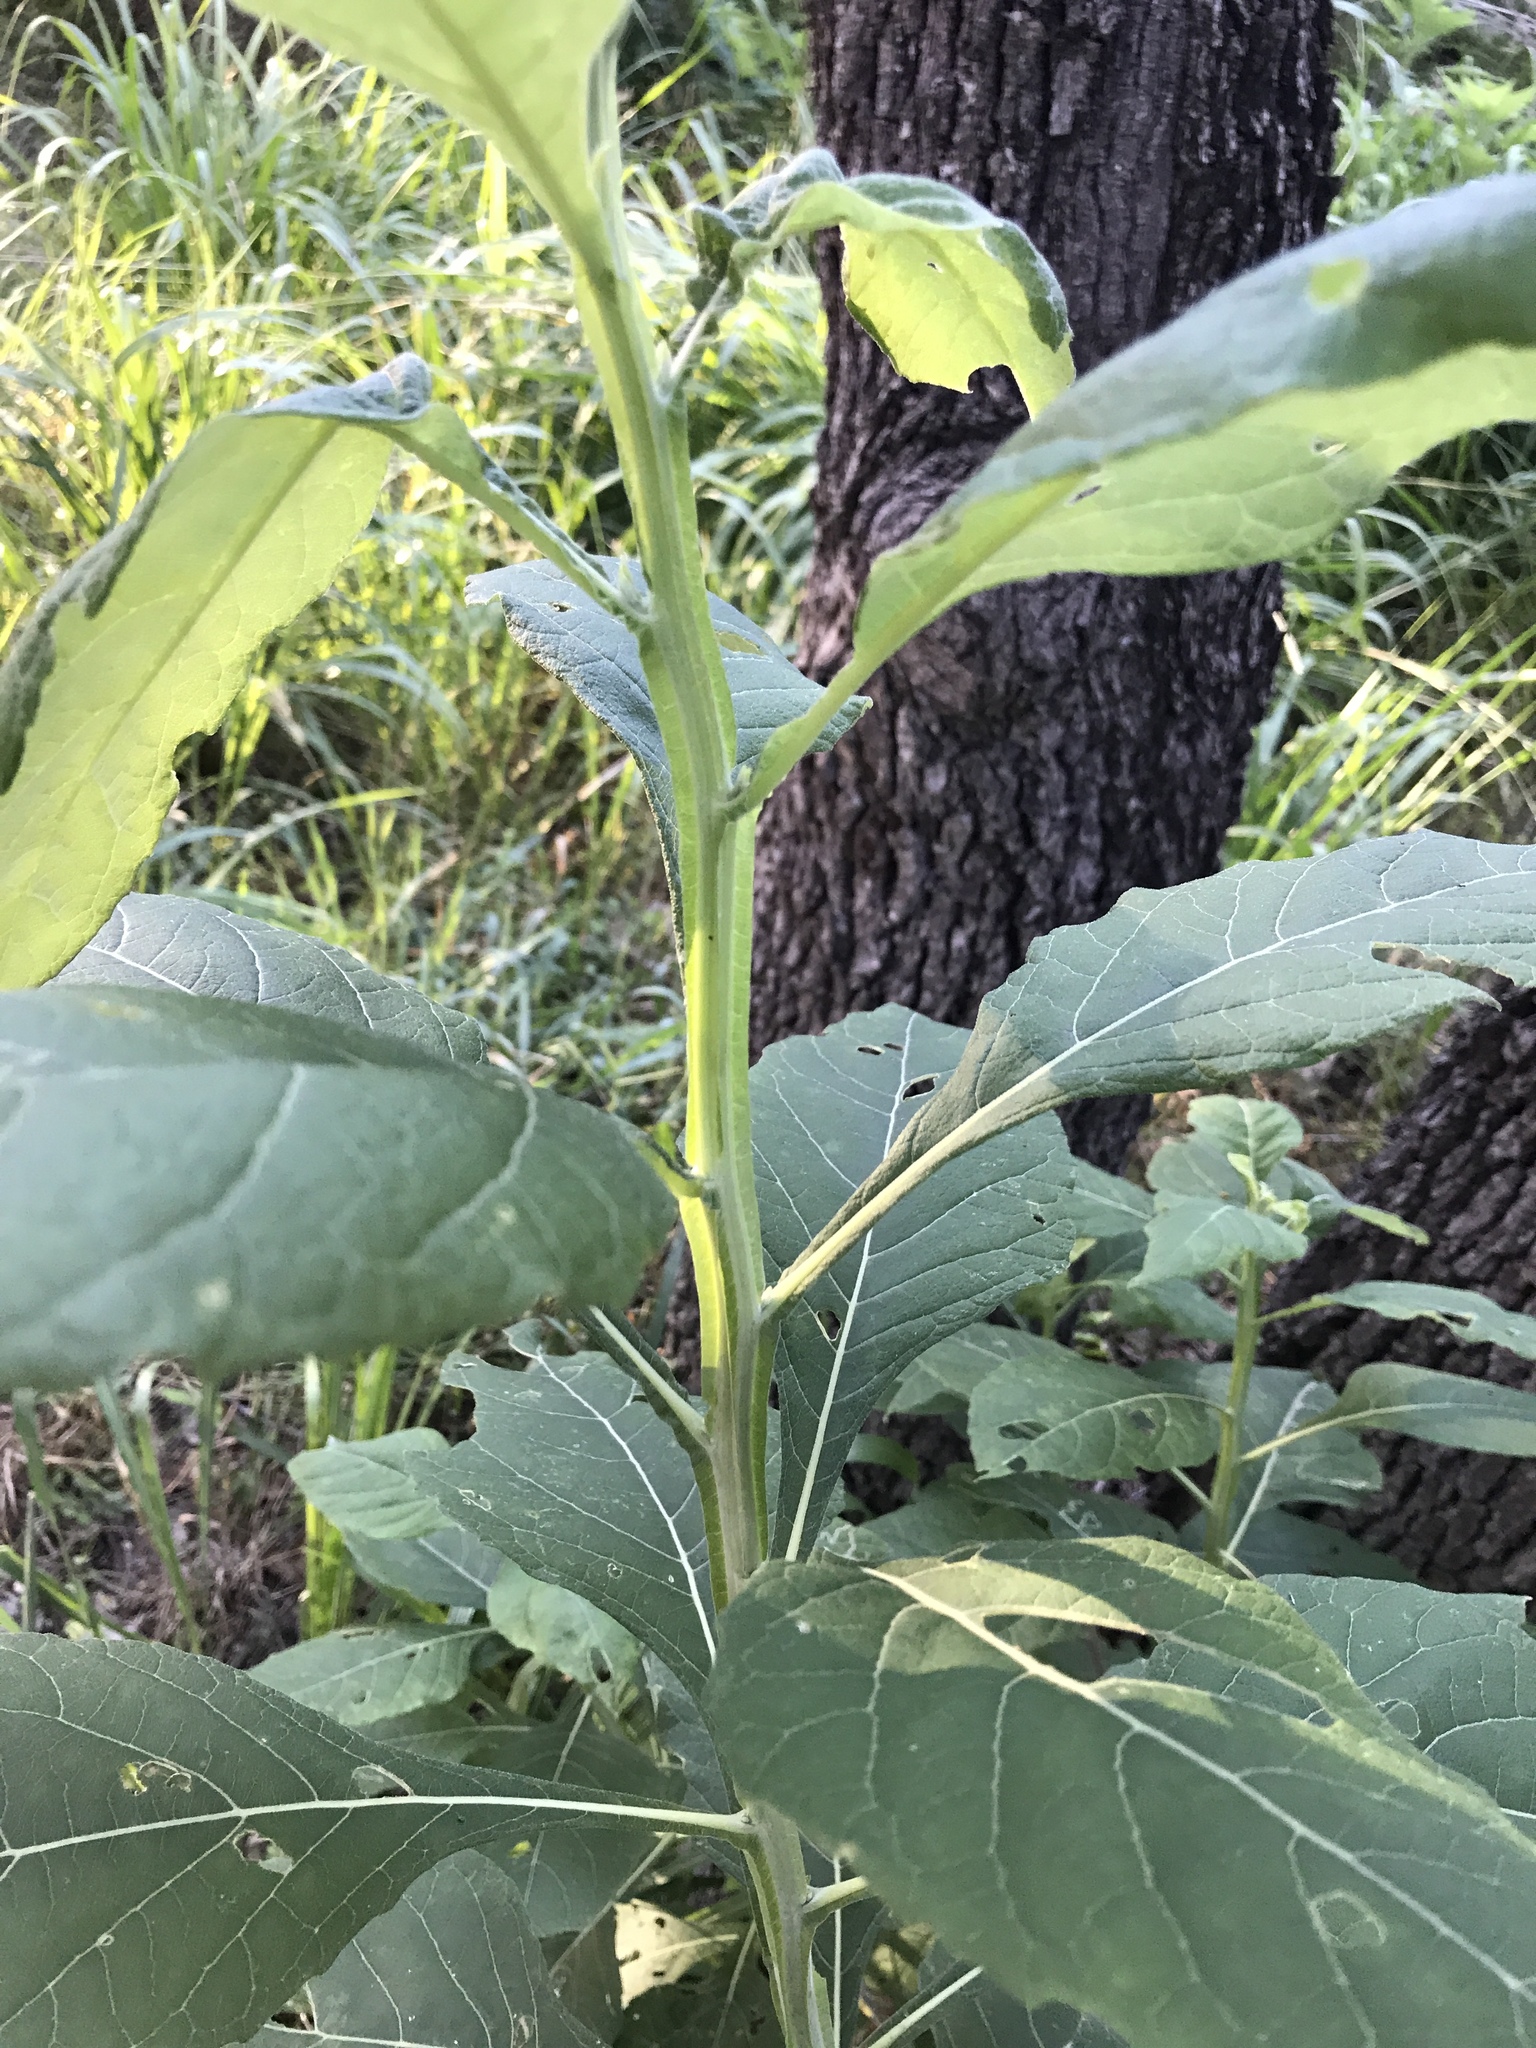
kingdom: Plantae
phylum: Tracheophyta
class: Magnoliopsida
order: Asterales
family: Asteraceae
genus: Verbesina
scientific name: Verbesina virginica
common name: Frostweed
